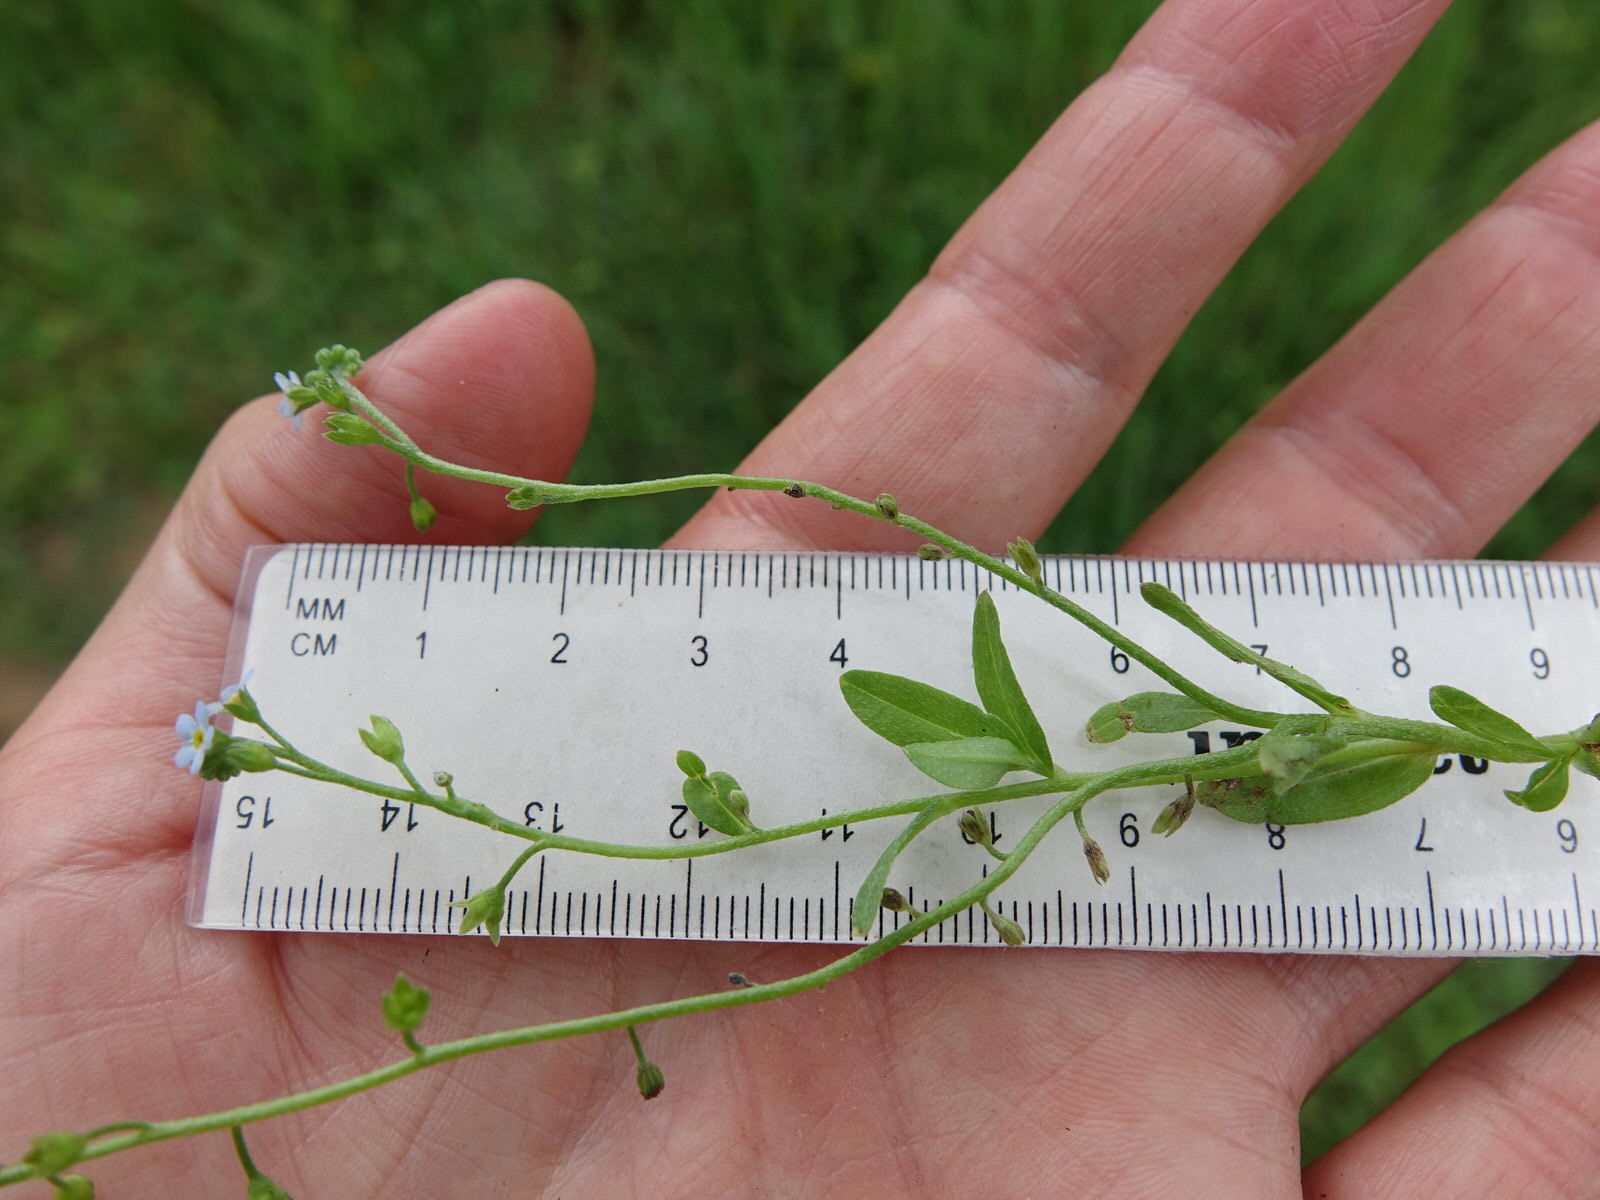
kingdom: Plantae
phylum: Tracheophyta
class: Magnoliopsida
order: Boraginales
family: Boraginaceae
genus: Myosotis
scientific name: Myosotis arvensis
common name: Field forget-me-not
